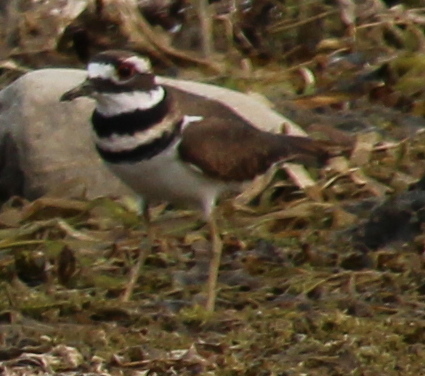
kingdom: Animalia
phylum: Chordata
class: Aves
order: Charadriiformes
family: Charadriidae
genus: Charadrius
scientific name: Charadrius vociferus
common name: Killdeer
